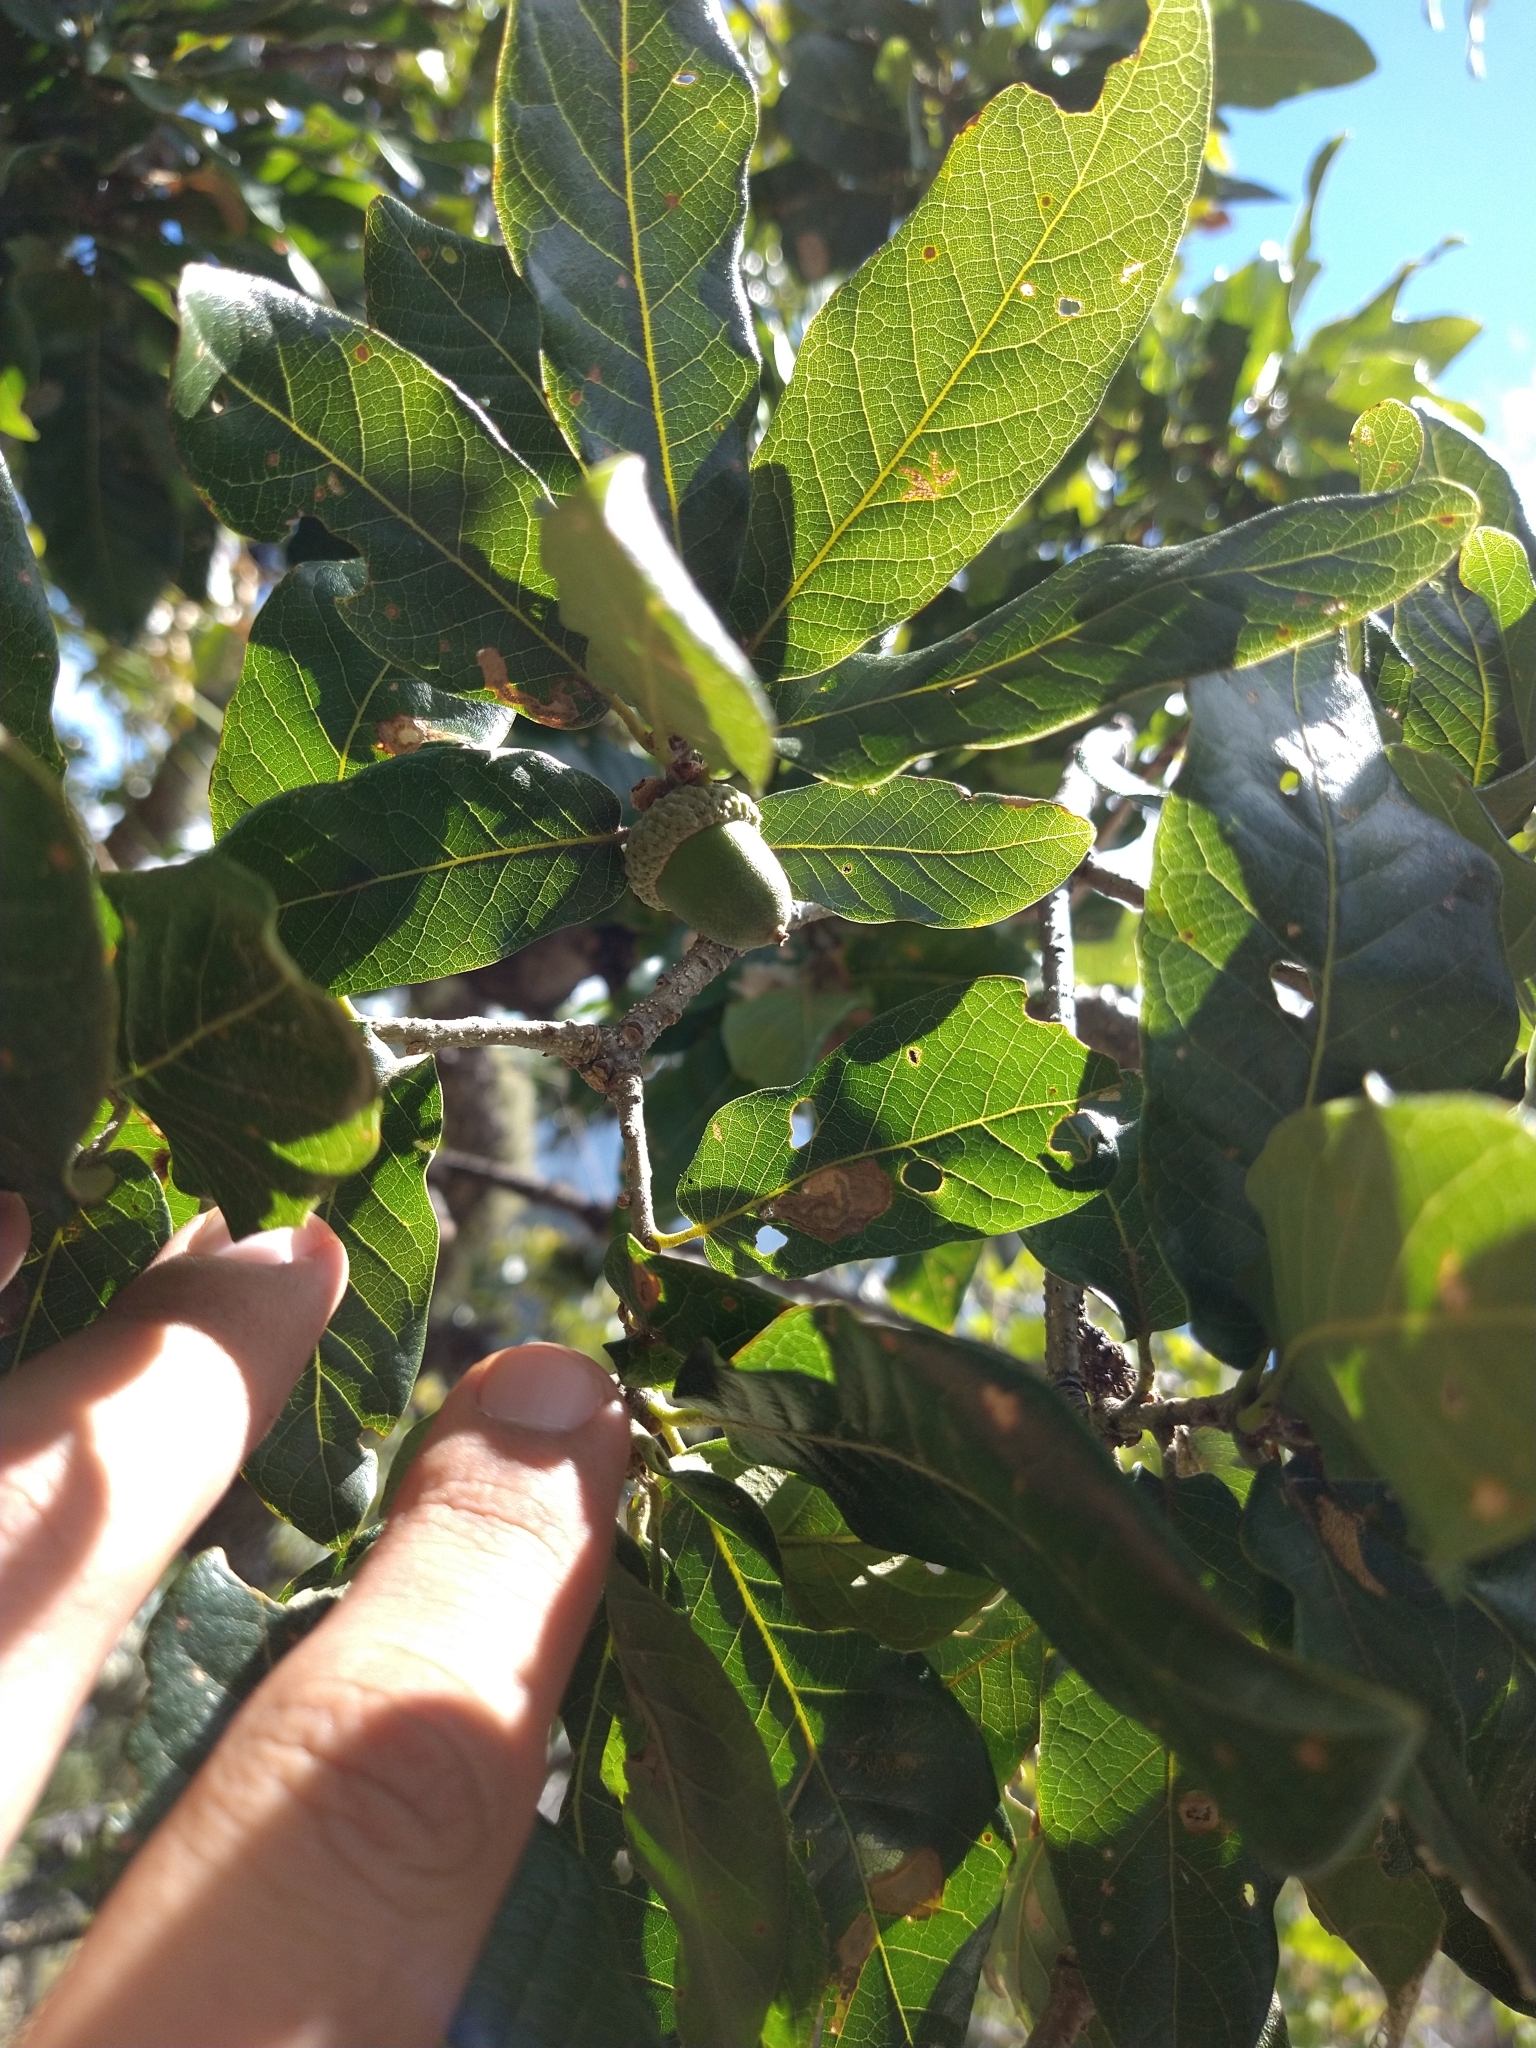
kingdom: Plantae
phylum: Tracheophyta
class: Magnoliopsida
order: Fagales
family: Fagaceae
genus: Quercus
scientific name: Quercus tuberculata
